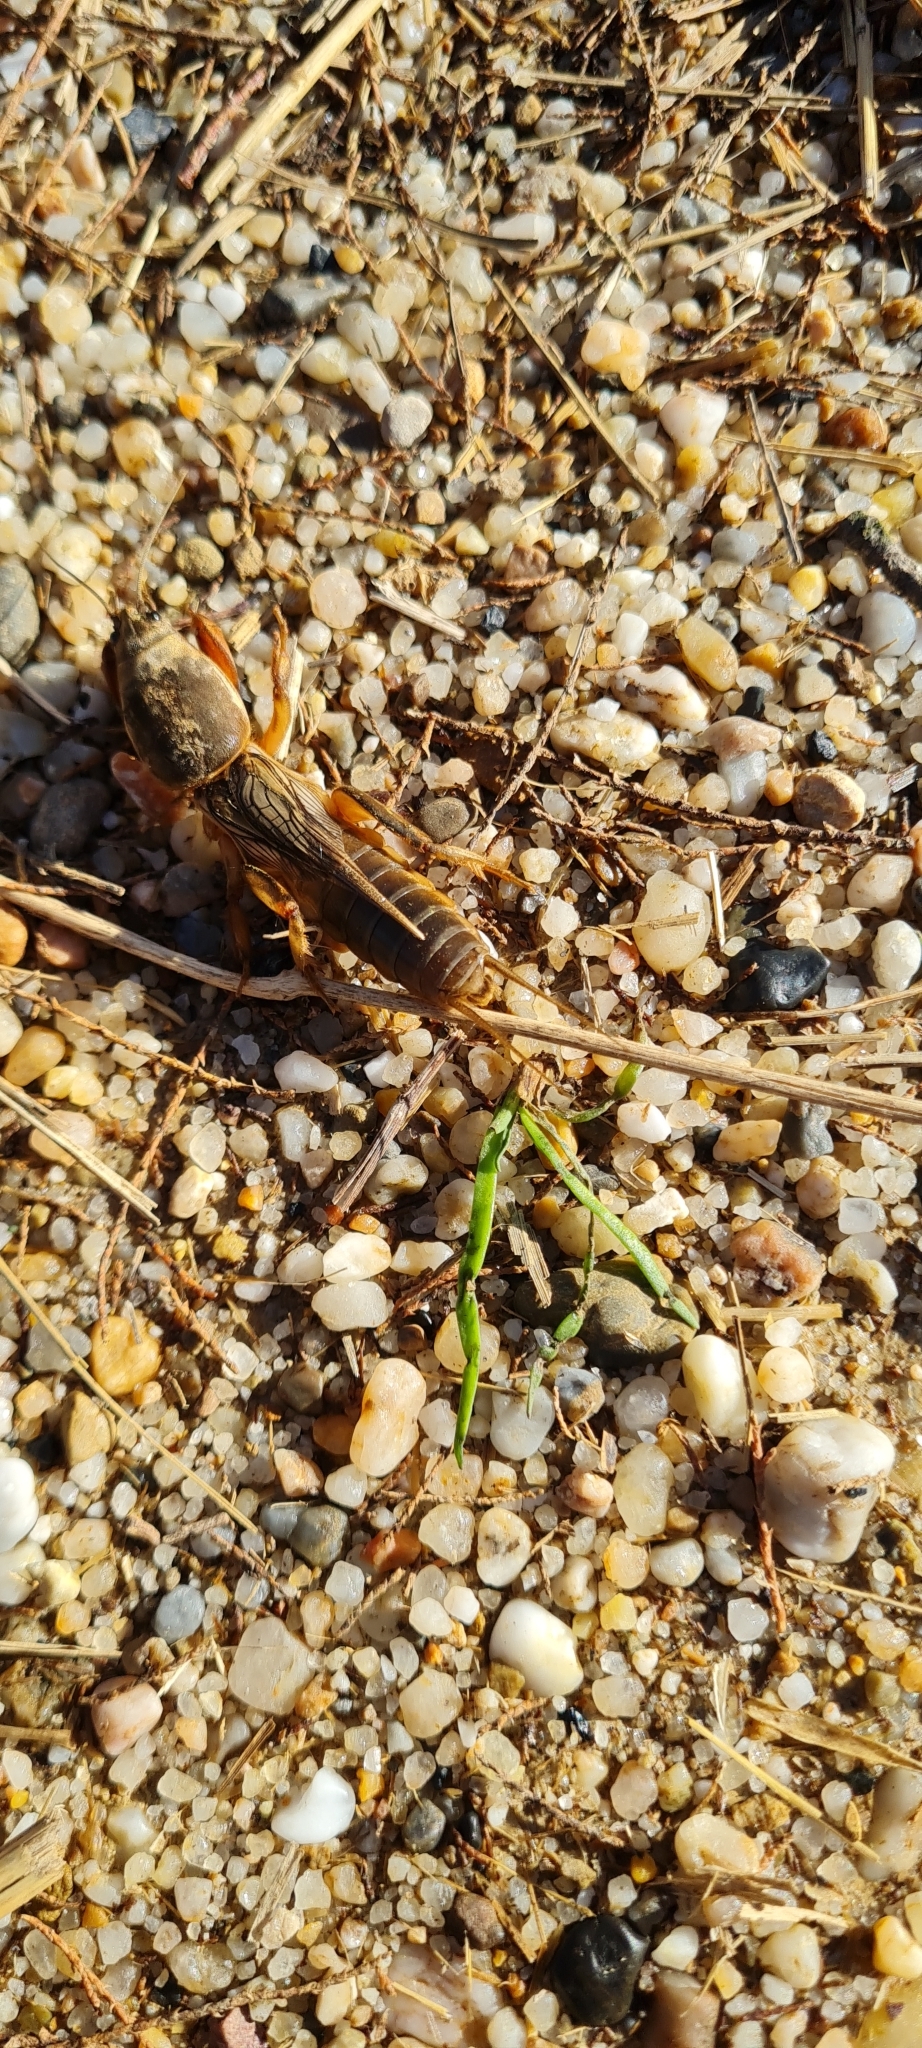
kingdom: Animalia
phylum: Arthropoda
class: Insecta
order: Orthoptera
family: Gryllotalpidae
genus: Gryllotalpa
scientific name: Gryllotalpa septemdecimchromosomica
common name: Seventeen-chromosome mole-cricket
